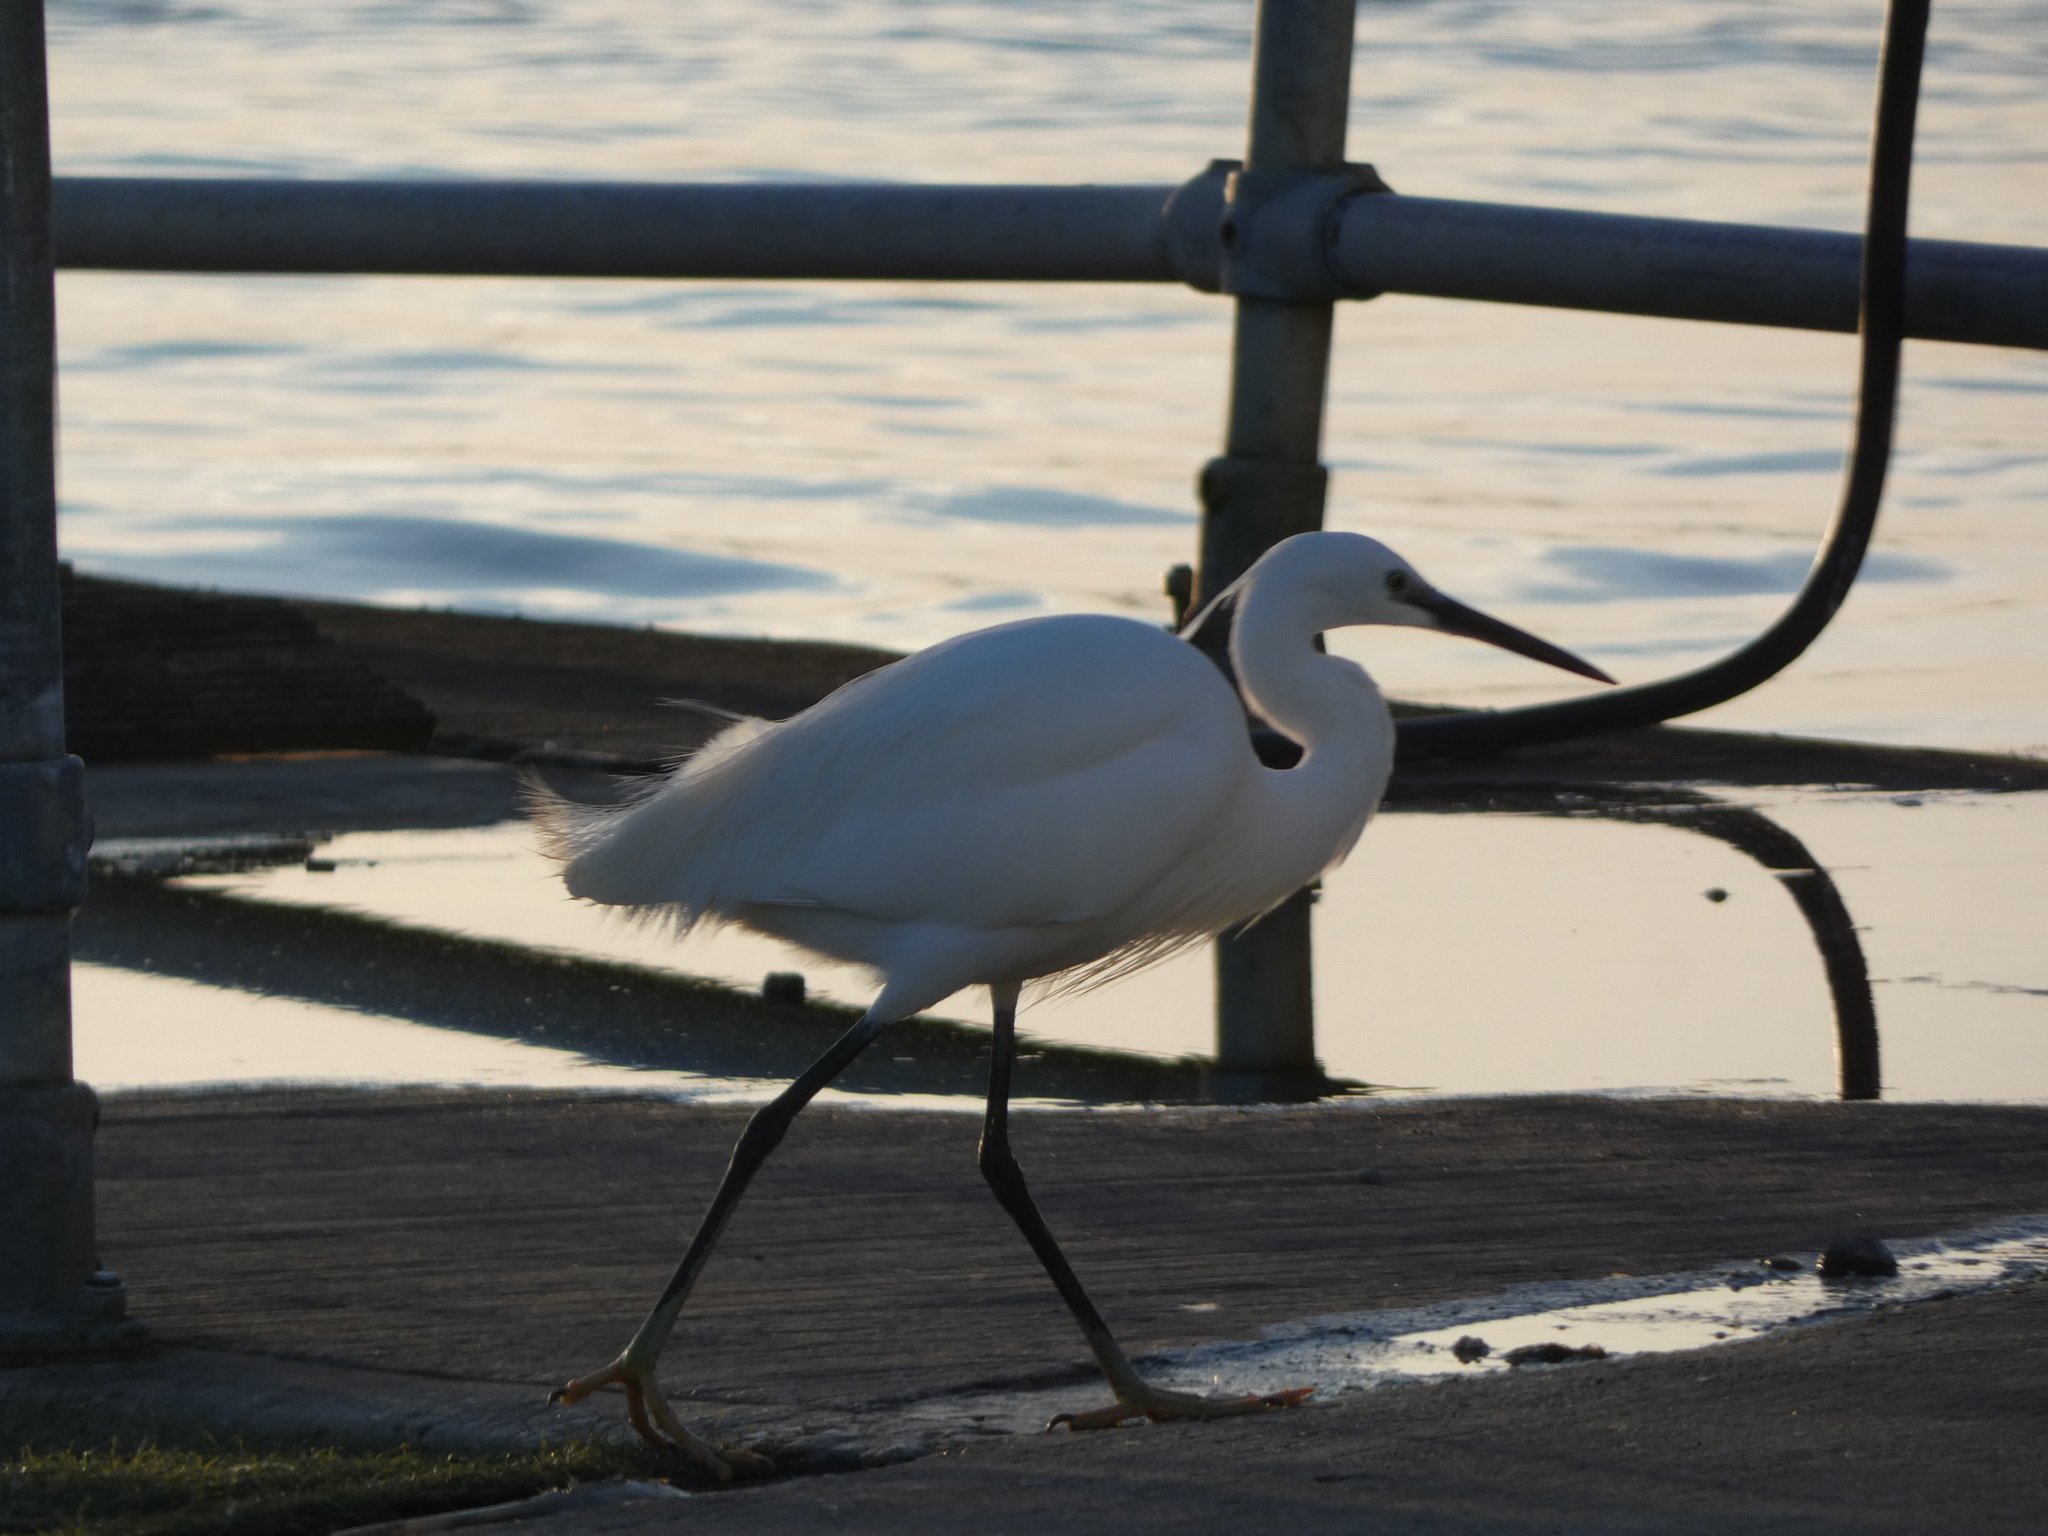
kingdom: Animalia
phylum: Chordata
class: Aves
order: Pelecaniformes
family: Ardeidae
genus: Egretta
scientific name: Egretta garzetta
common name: Little egret
